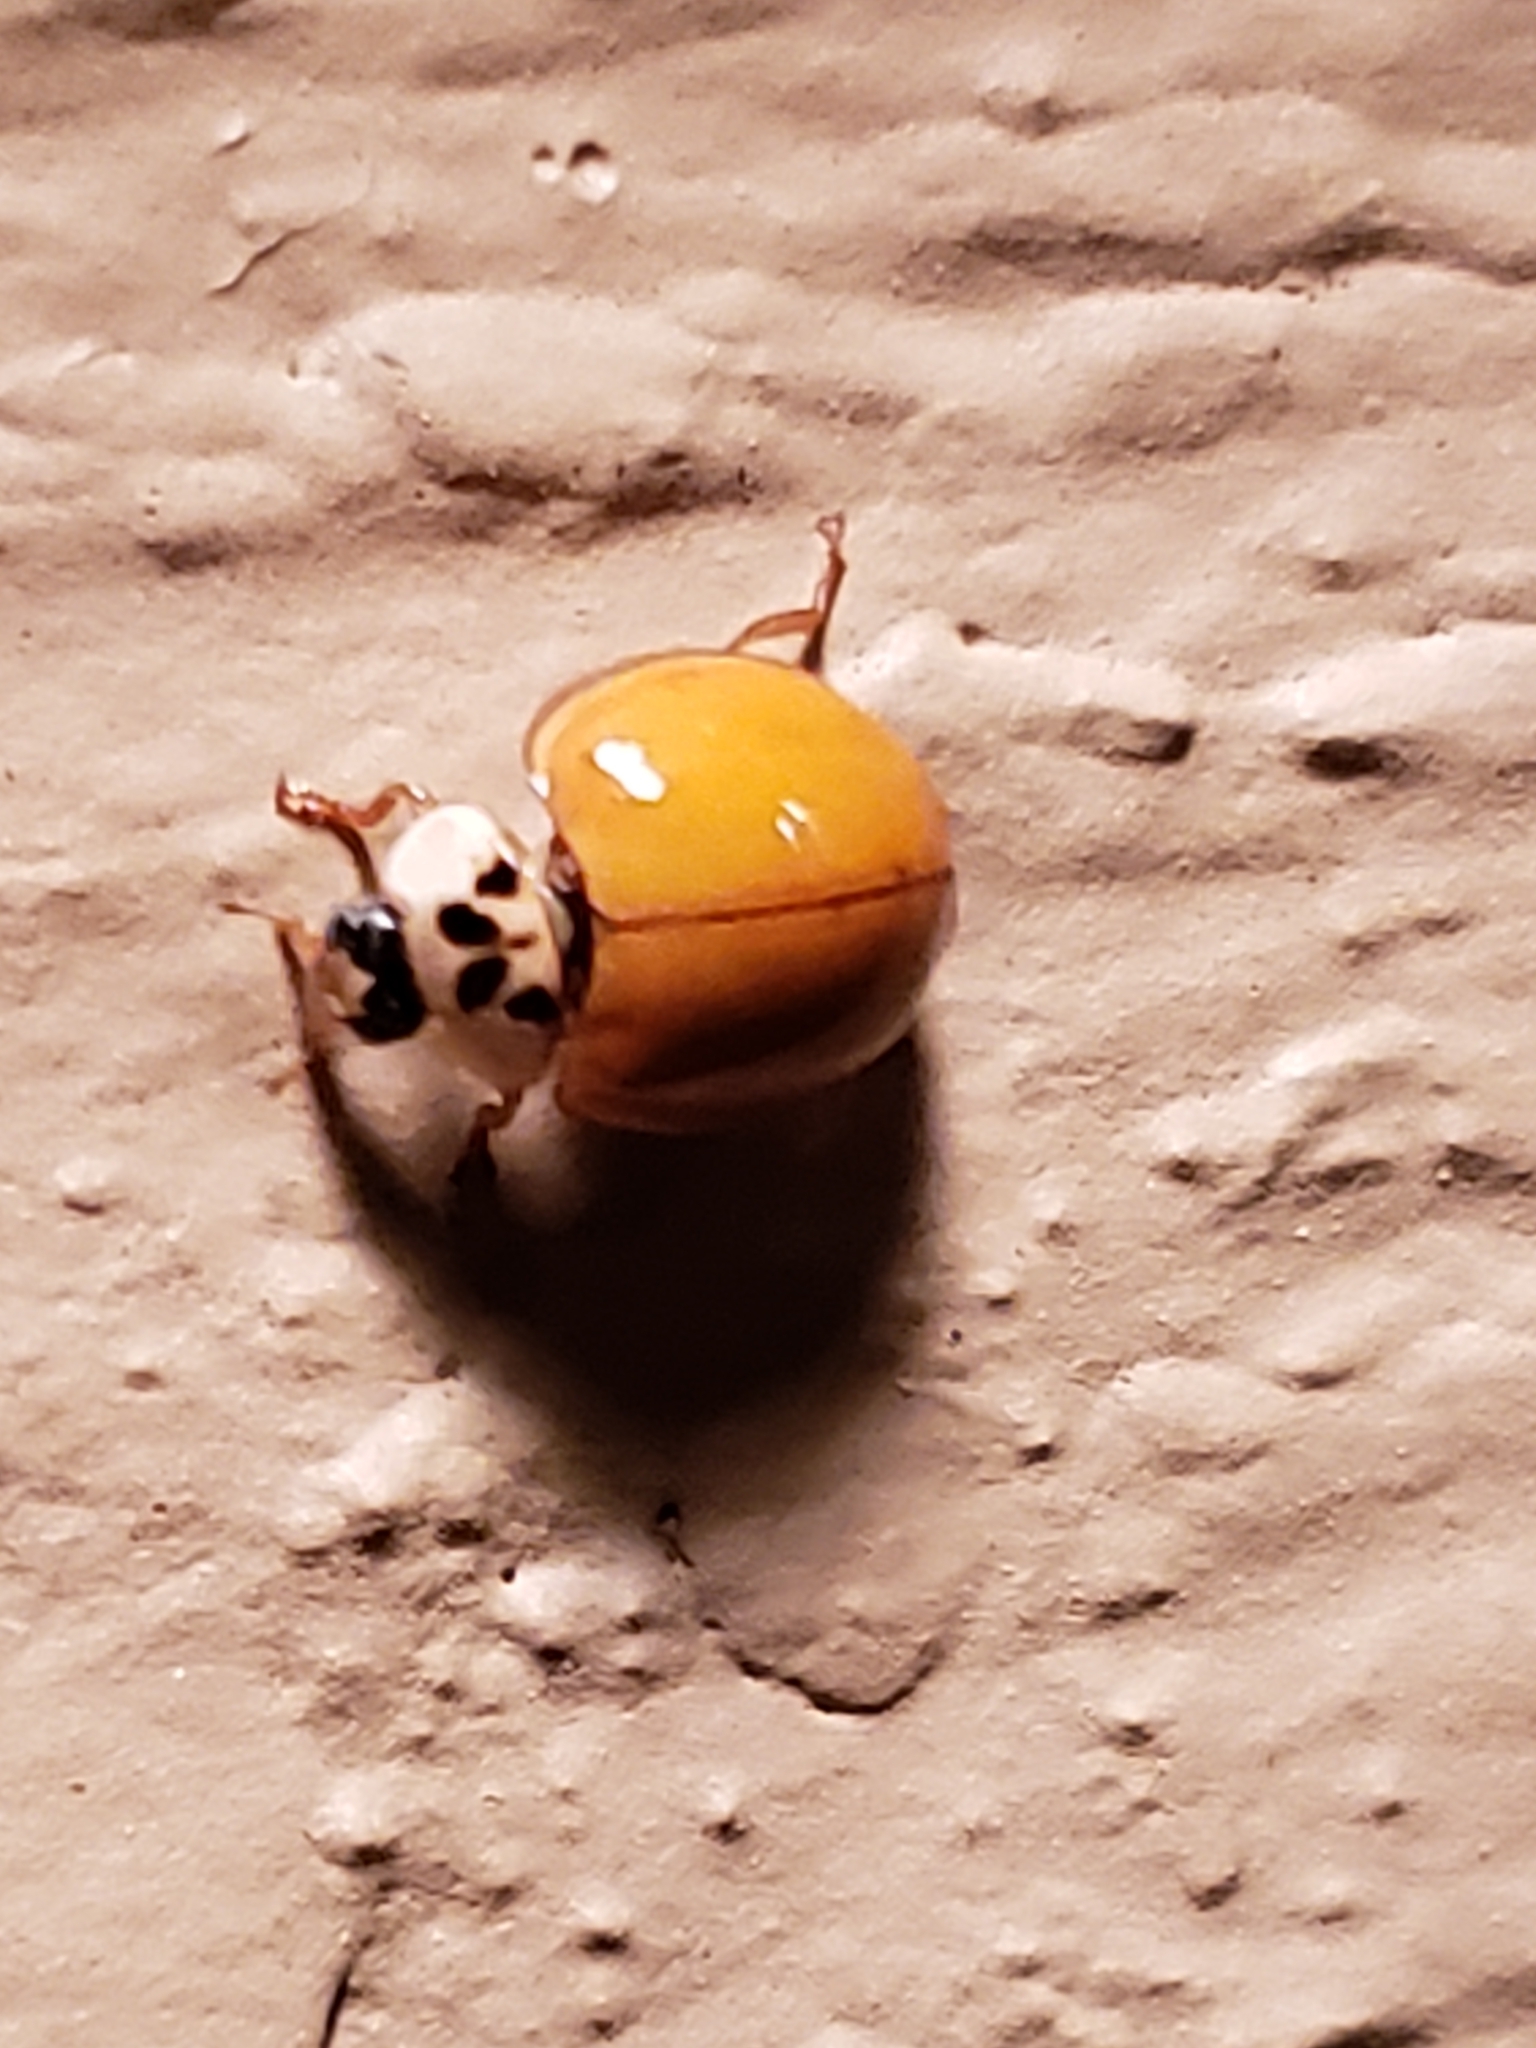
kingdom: Animalia
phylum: Arthropoda
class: Insecta
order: Coleoptera
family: Coccinellidae
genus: Harmonia
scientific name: Harmonia axyridis
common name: Harlequin ladybird
